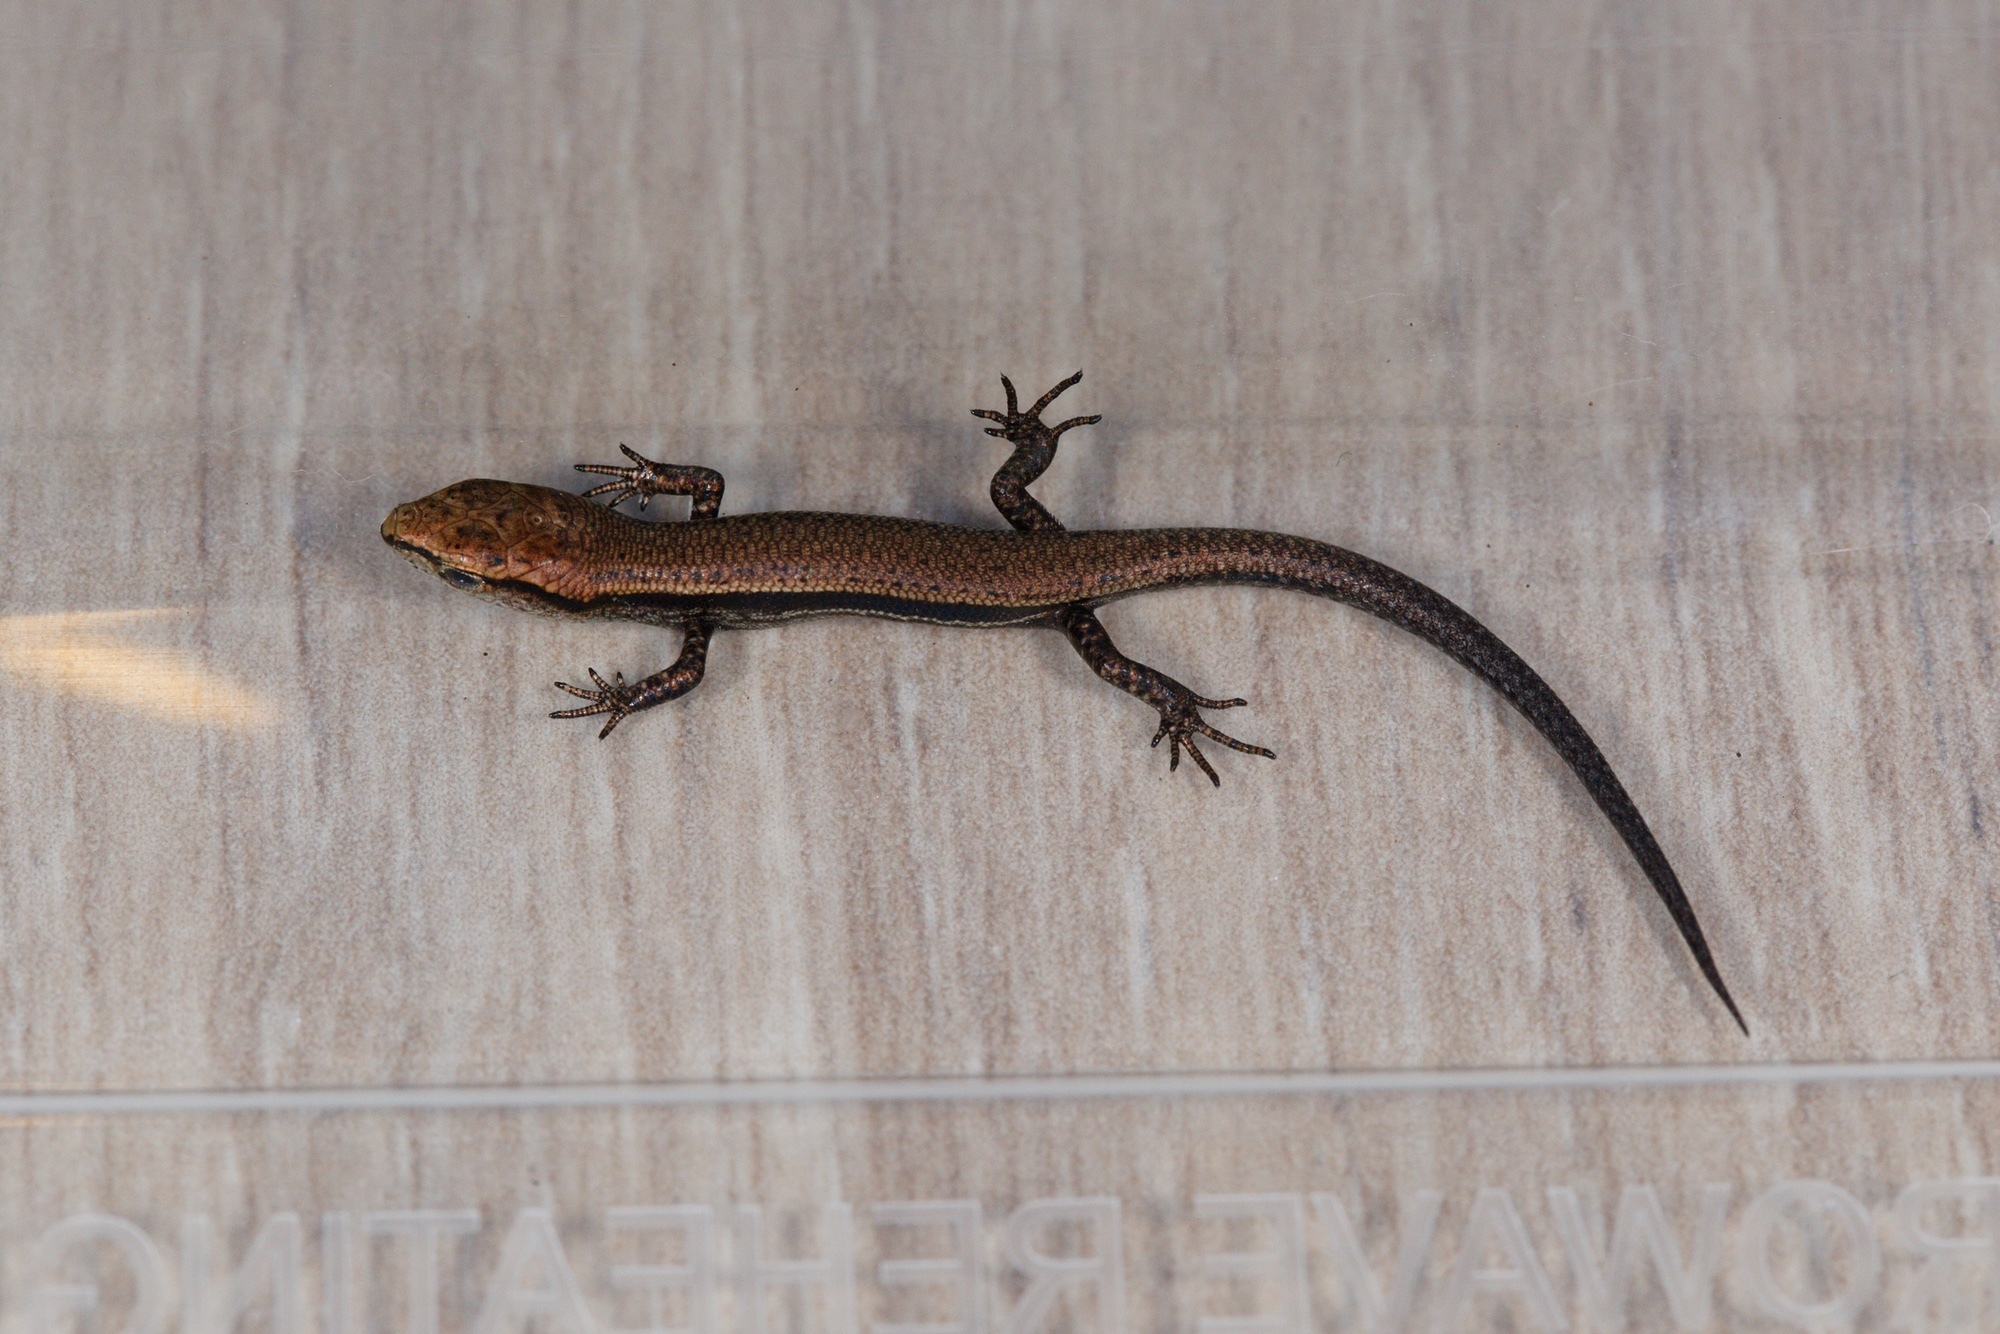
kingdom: Animalia
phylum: Chordata
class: Squamata
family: Scincidae
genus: Lampropholis
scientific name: Lampropholis delicata
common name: Plague skink
